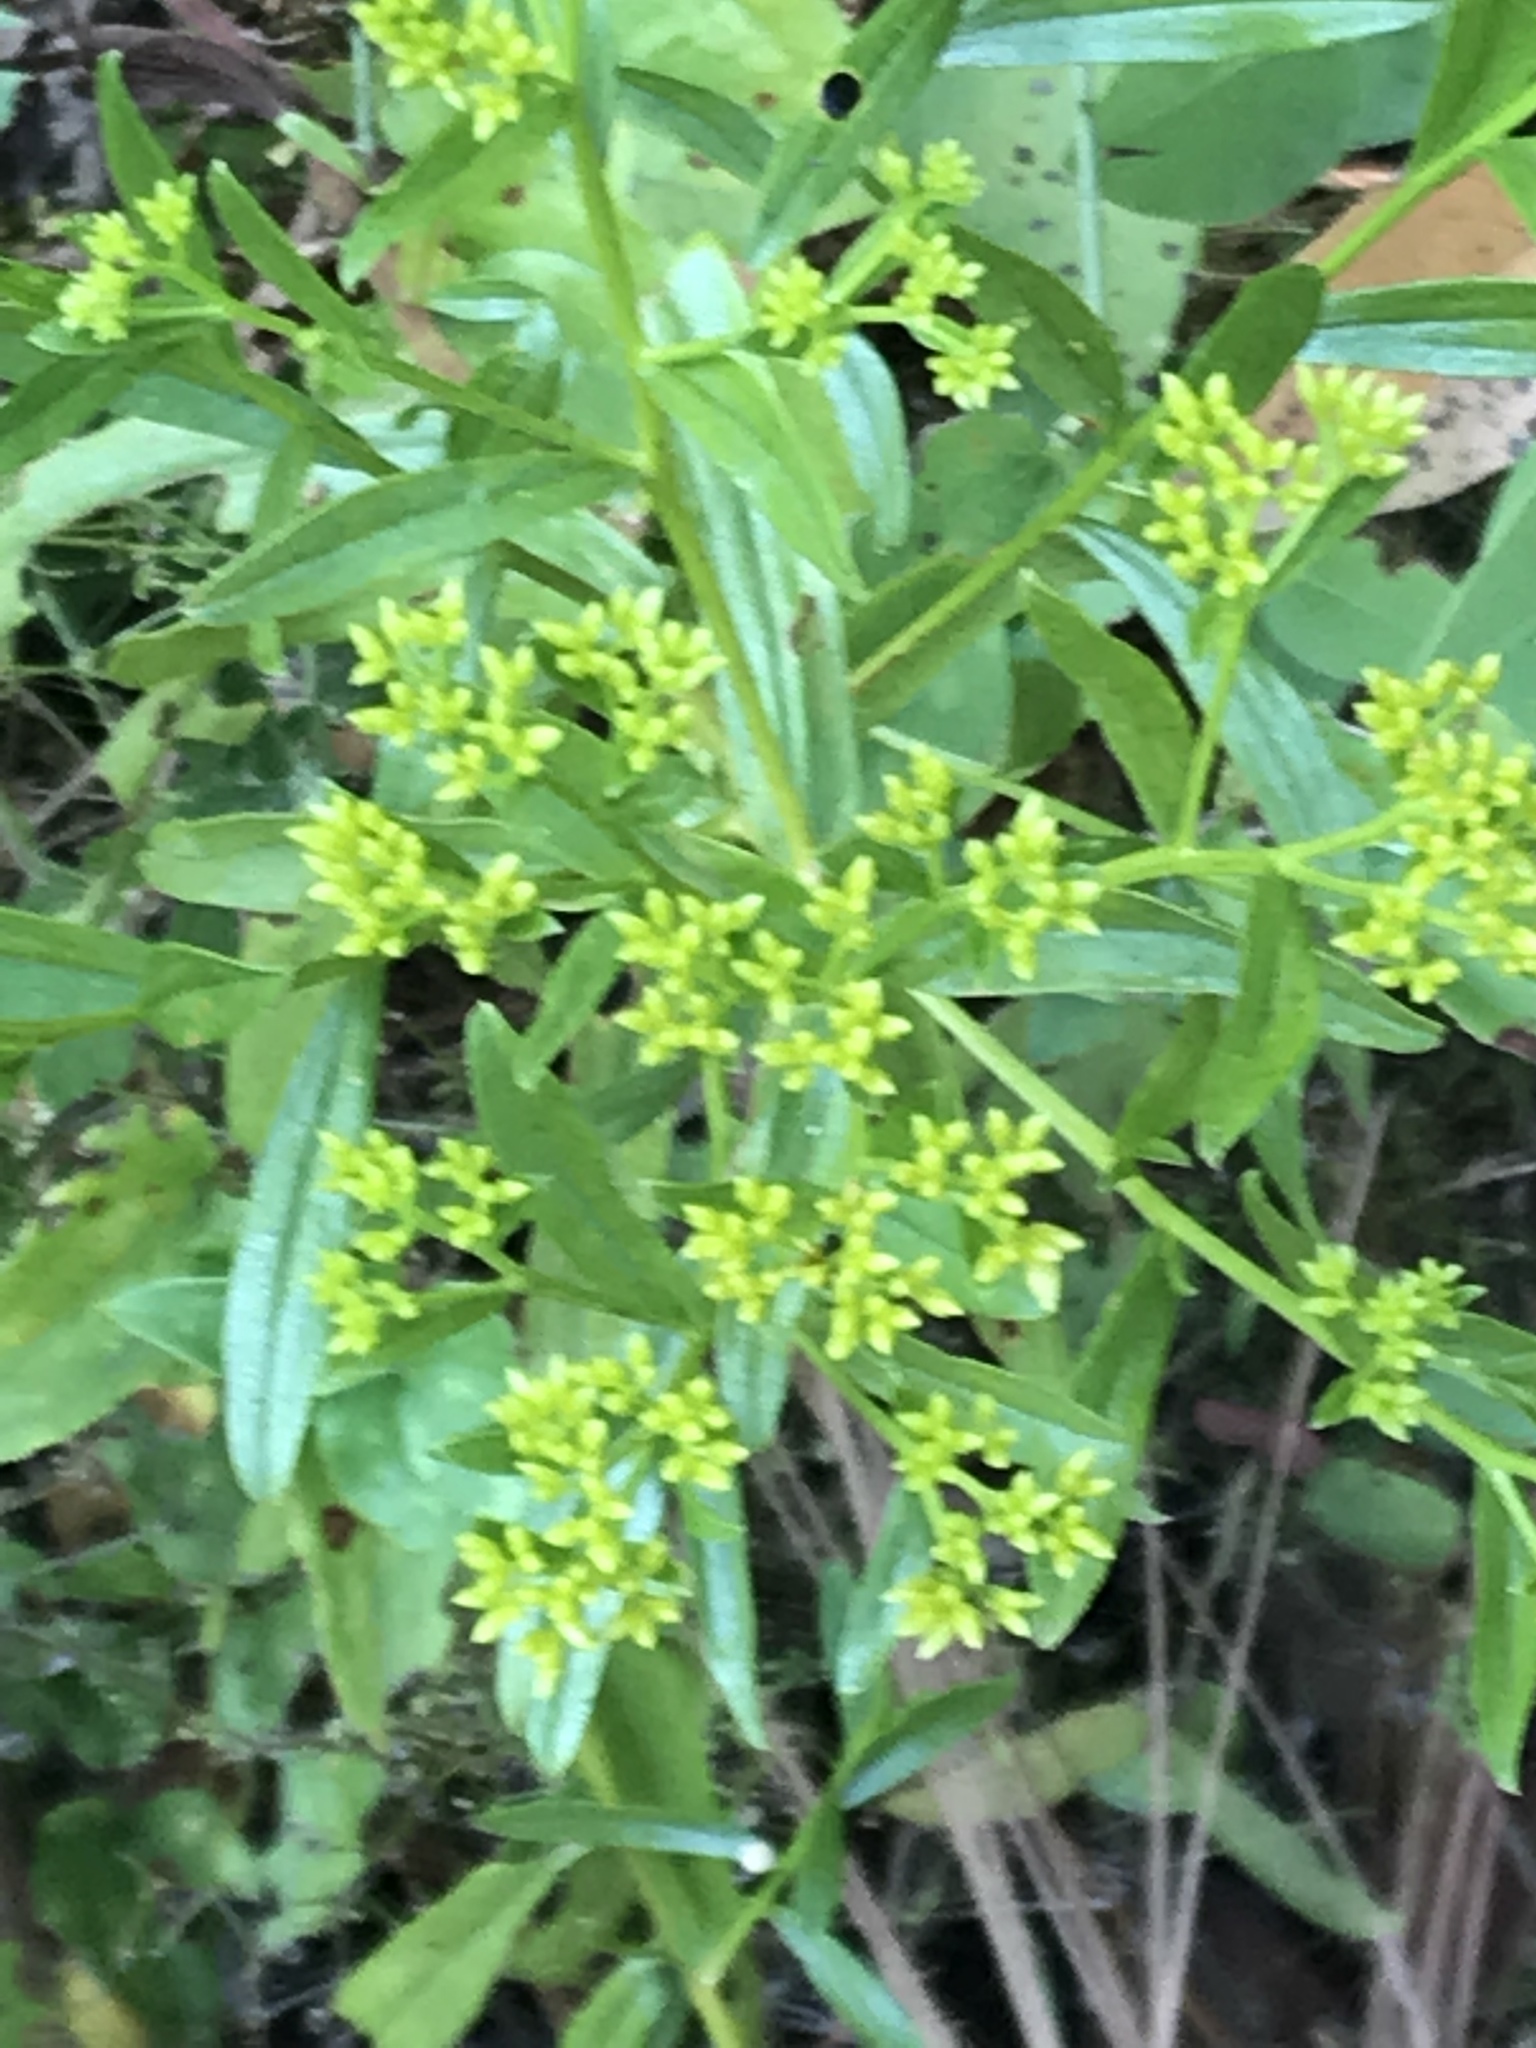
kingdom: Plantae
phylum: Tracheophyta
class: Magnoliopsida
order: Asterales
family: Asteraceae
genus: Gymnosperma
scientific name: Gymnosperma glutinosum
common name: Gumhead
